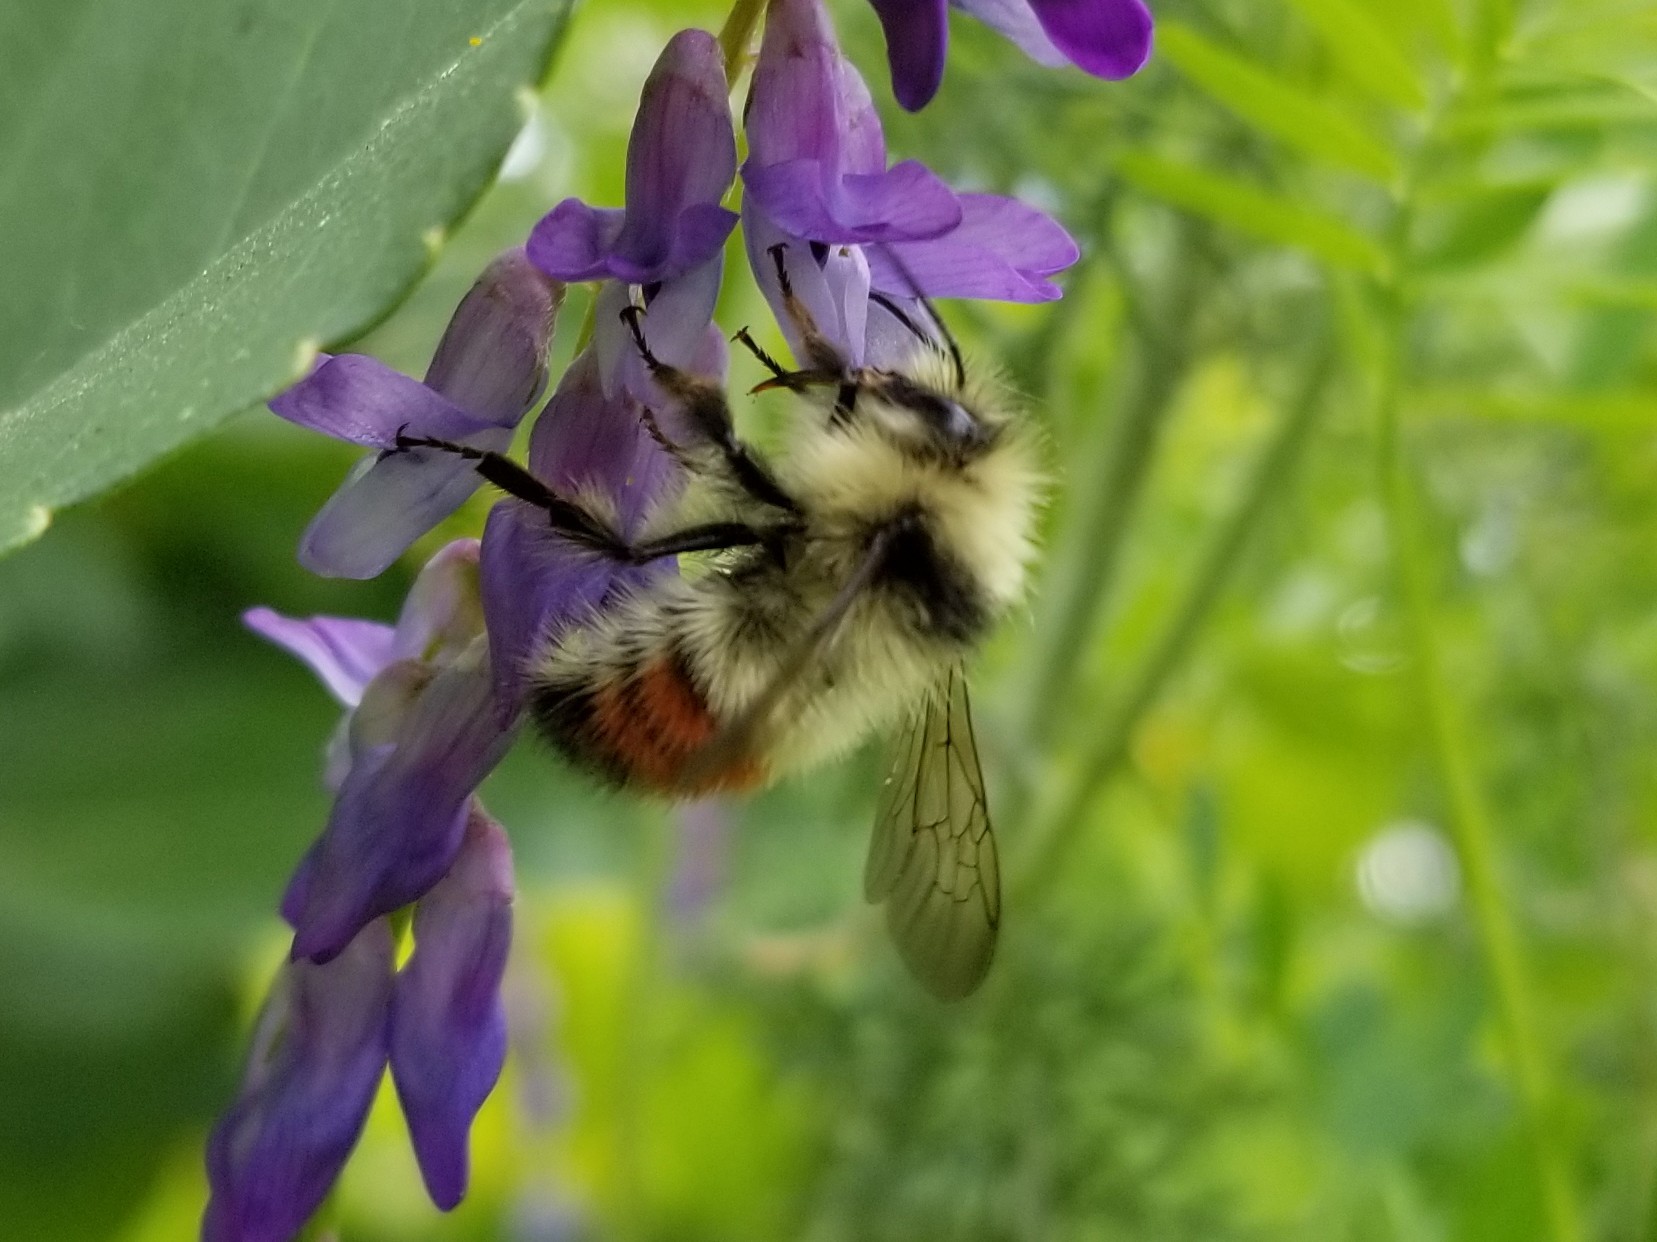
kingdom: Animalia
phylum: Arthropoda
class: Insecta
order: Hymenoptera
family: Apidae
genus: Bombus
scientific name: Bombus flavifrons
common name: Yellow head bumble bee
